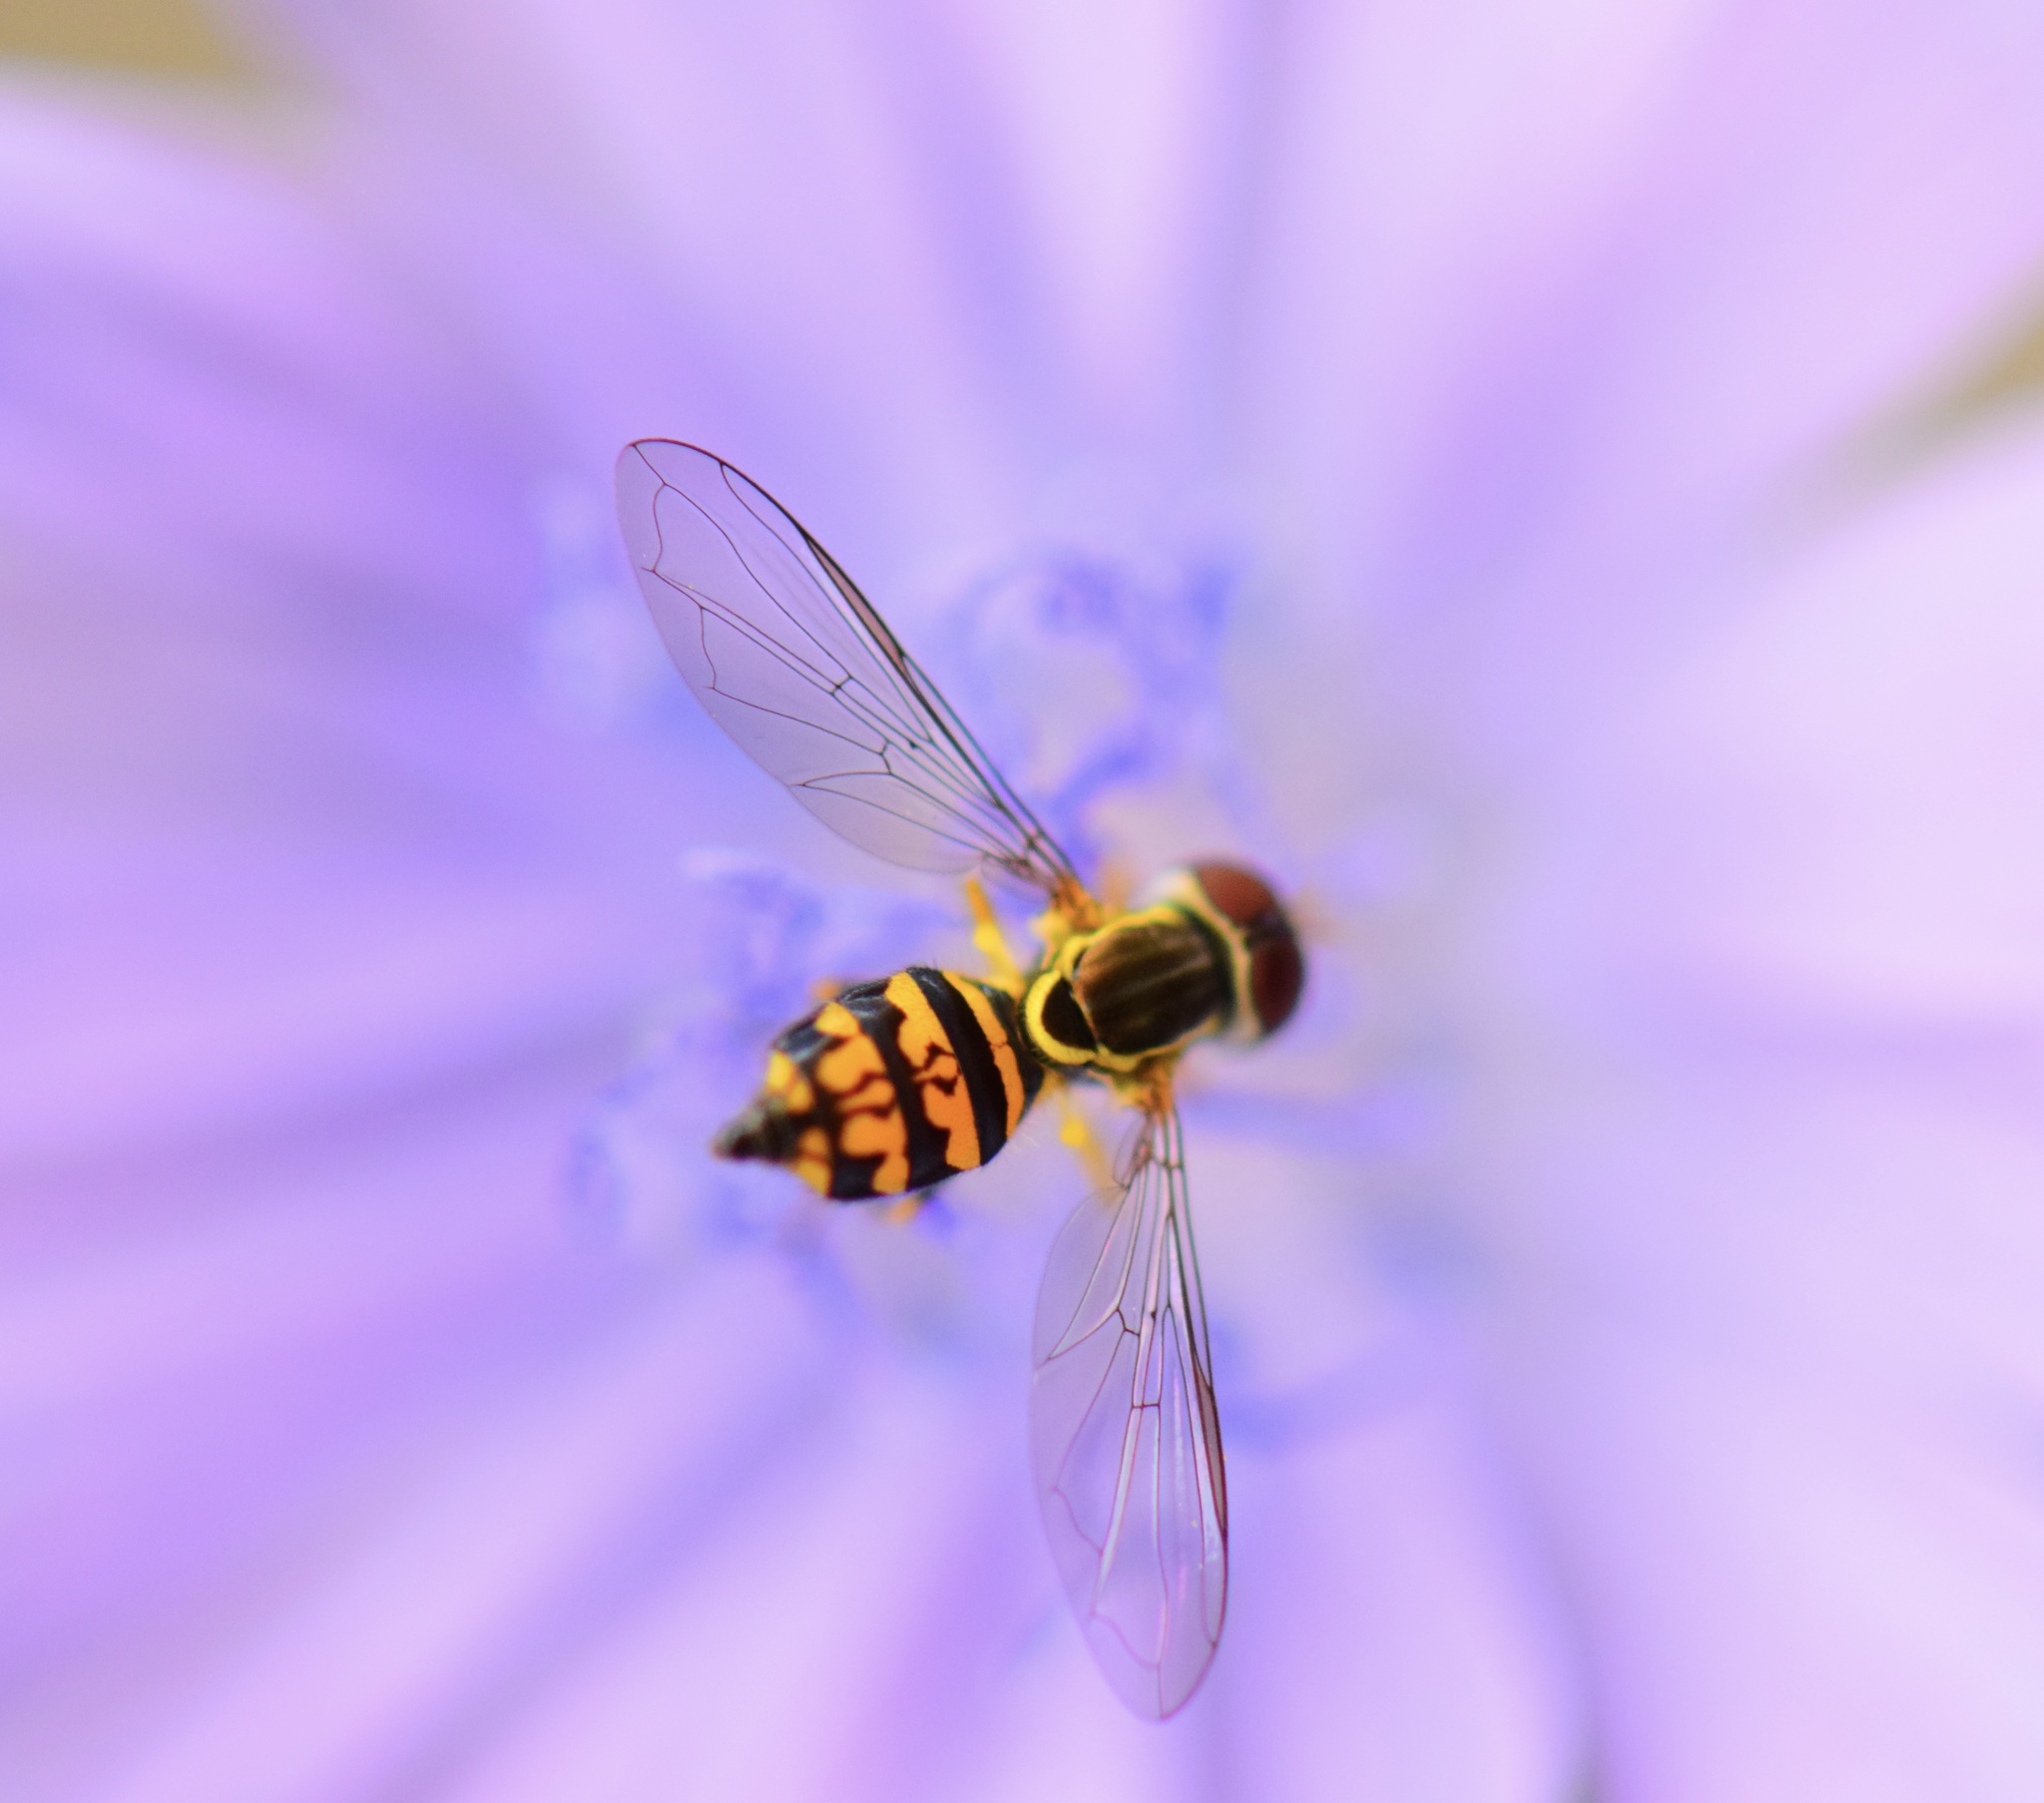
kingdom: Animalia
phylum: Arthropoda
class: Insecta
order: Diptera
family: Syrphidae
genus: Toxomerus
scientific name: Toxomerus geminatus
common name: Eastern calligrapher
